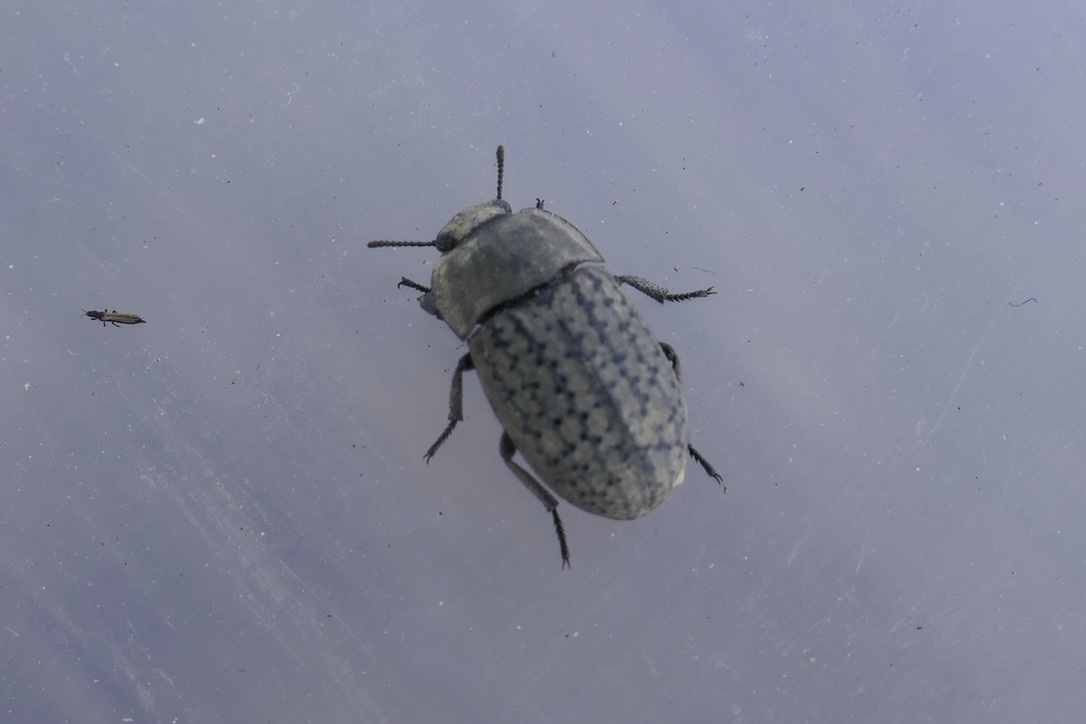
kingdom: Animalia
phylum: Arthropoda
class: Insecta
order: Coleoptera
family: Tenebrionidae
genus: Opatrum
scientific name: Opatrum sabulosum
